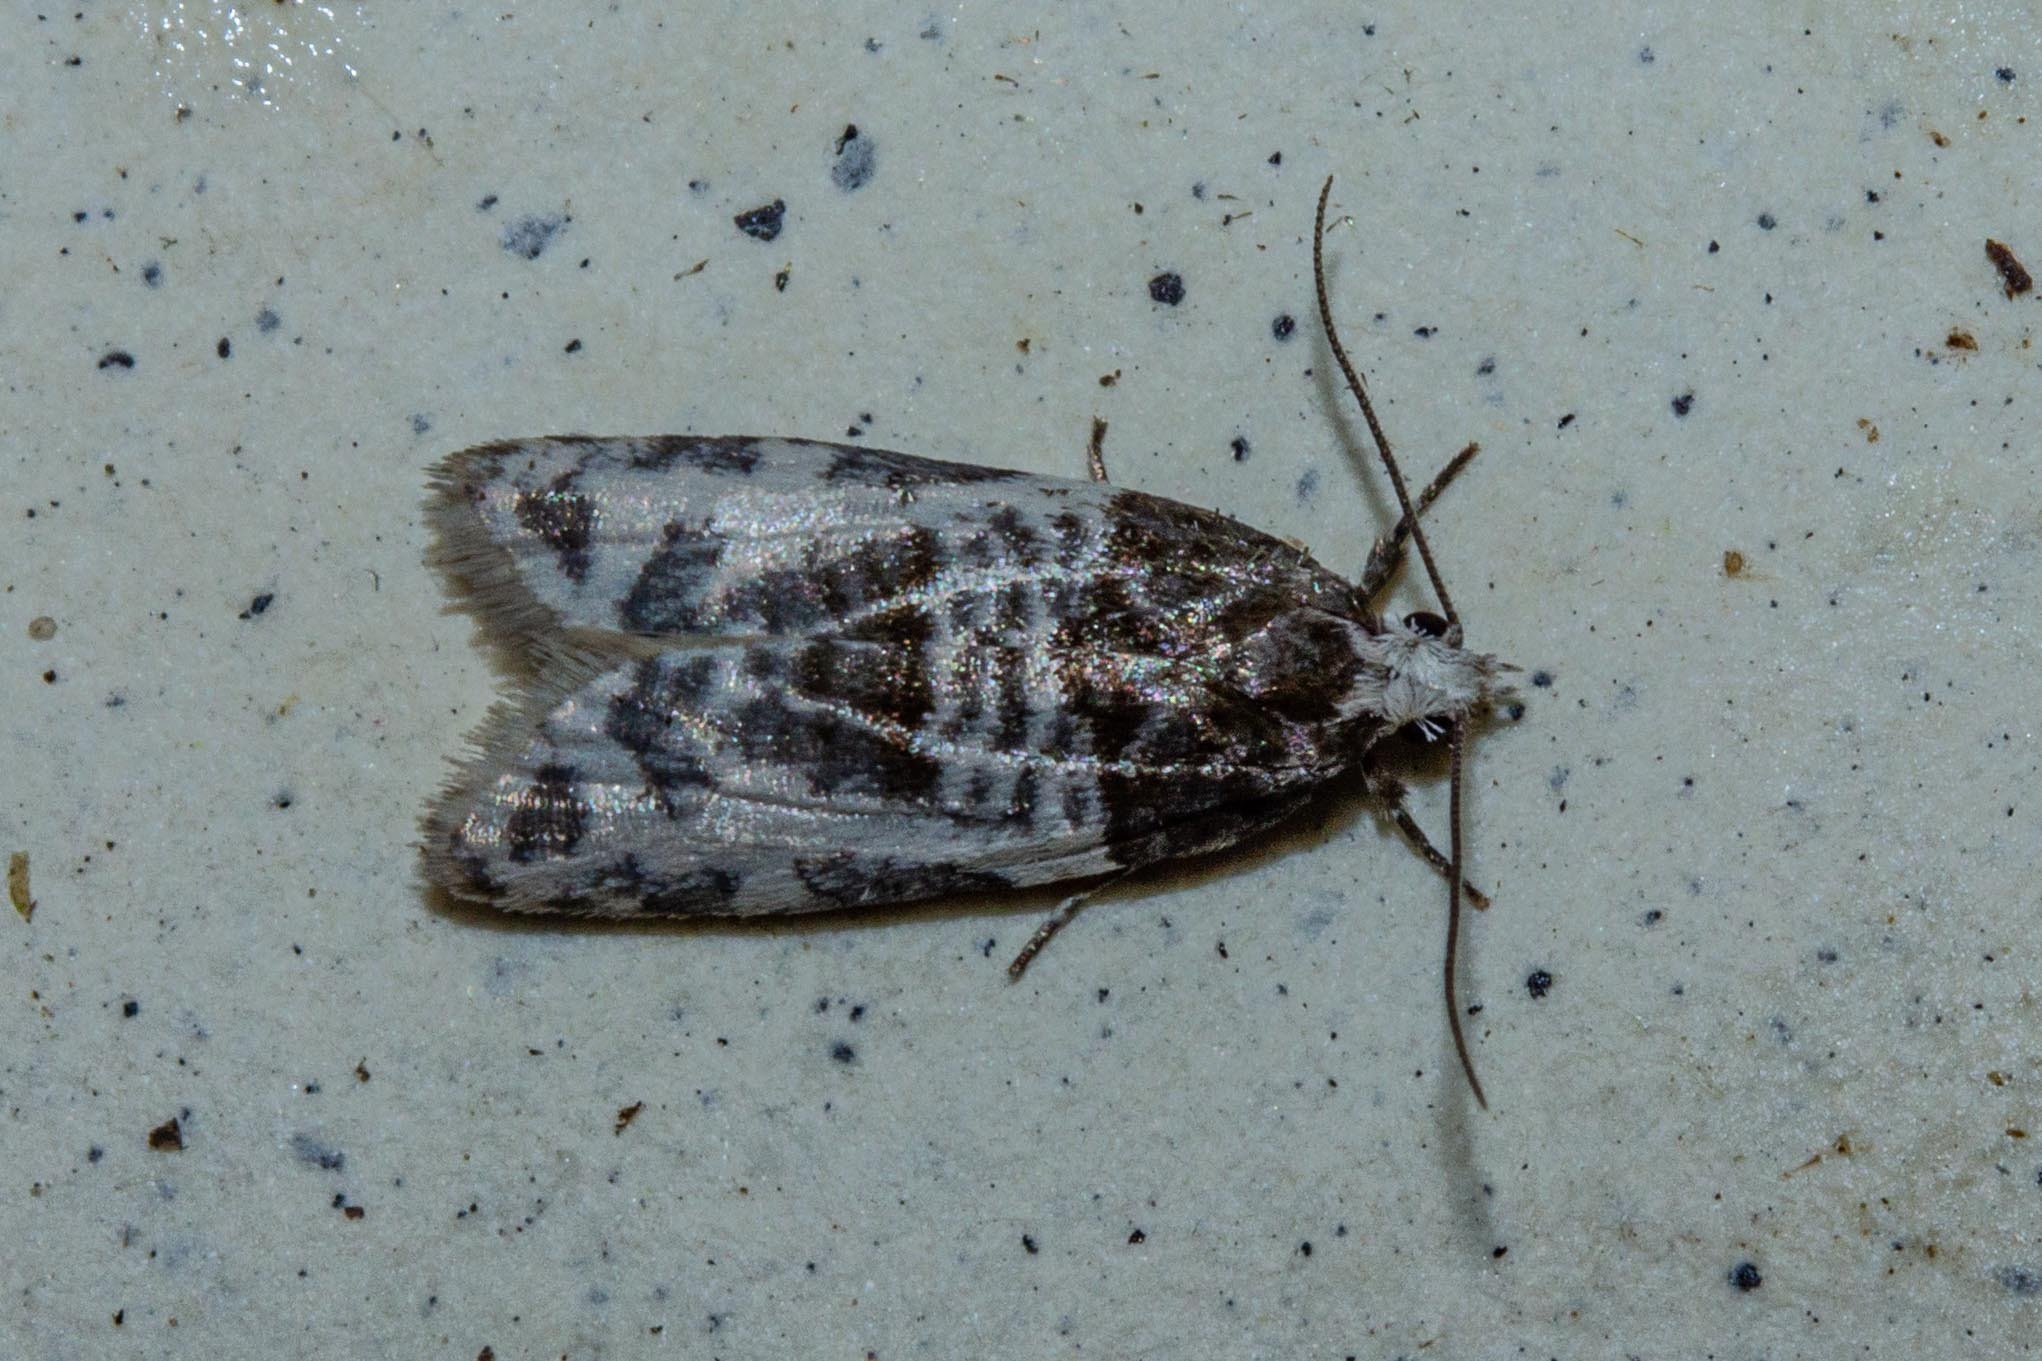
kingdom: Animalia
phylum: Arthropoda
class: Insecta
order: Lepidoptera
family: Tortricidae
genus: Prothelymna
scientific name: Prothelymna niphostrota
